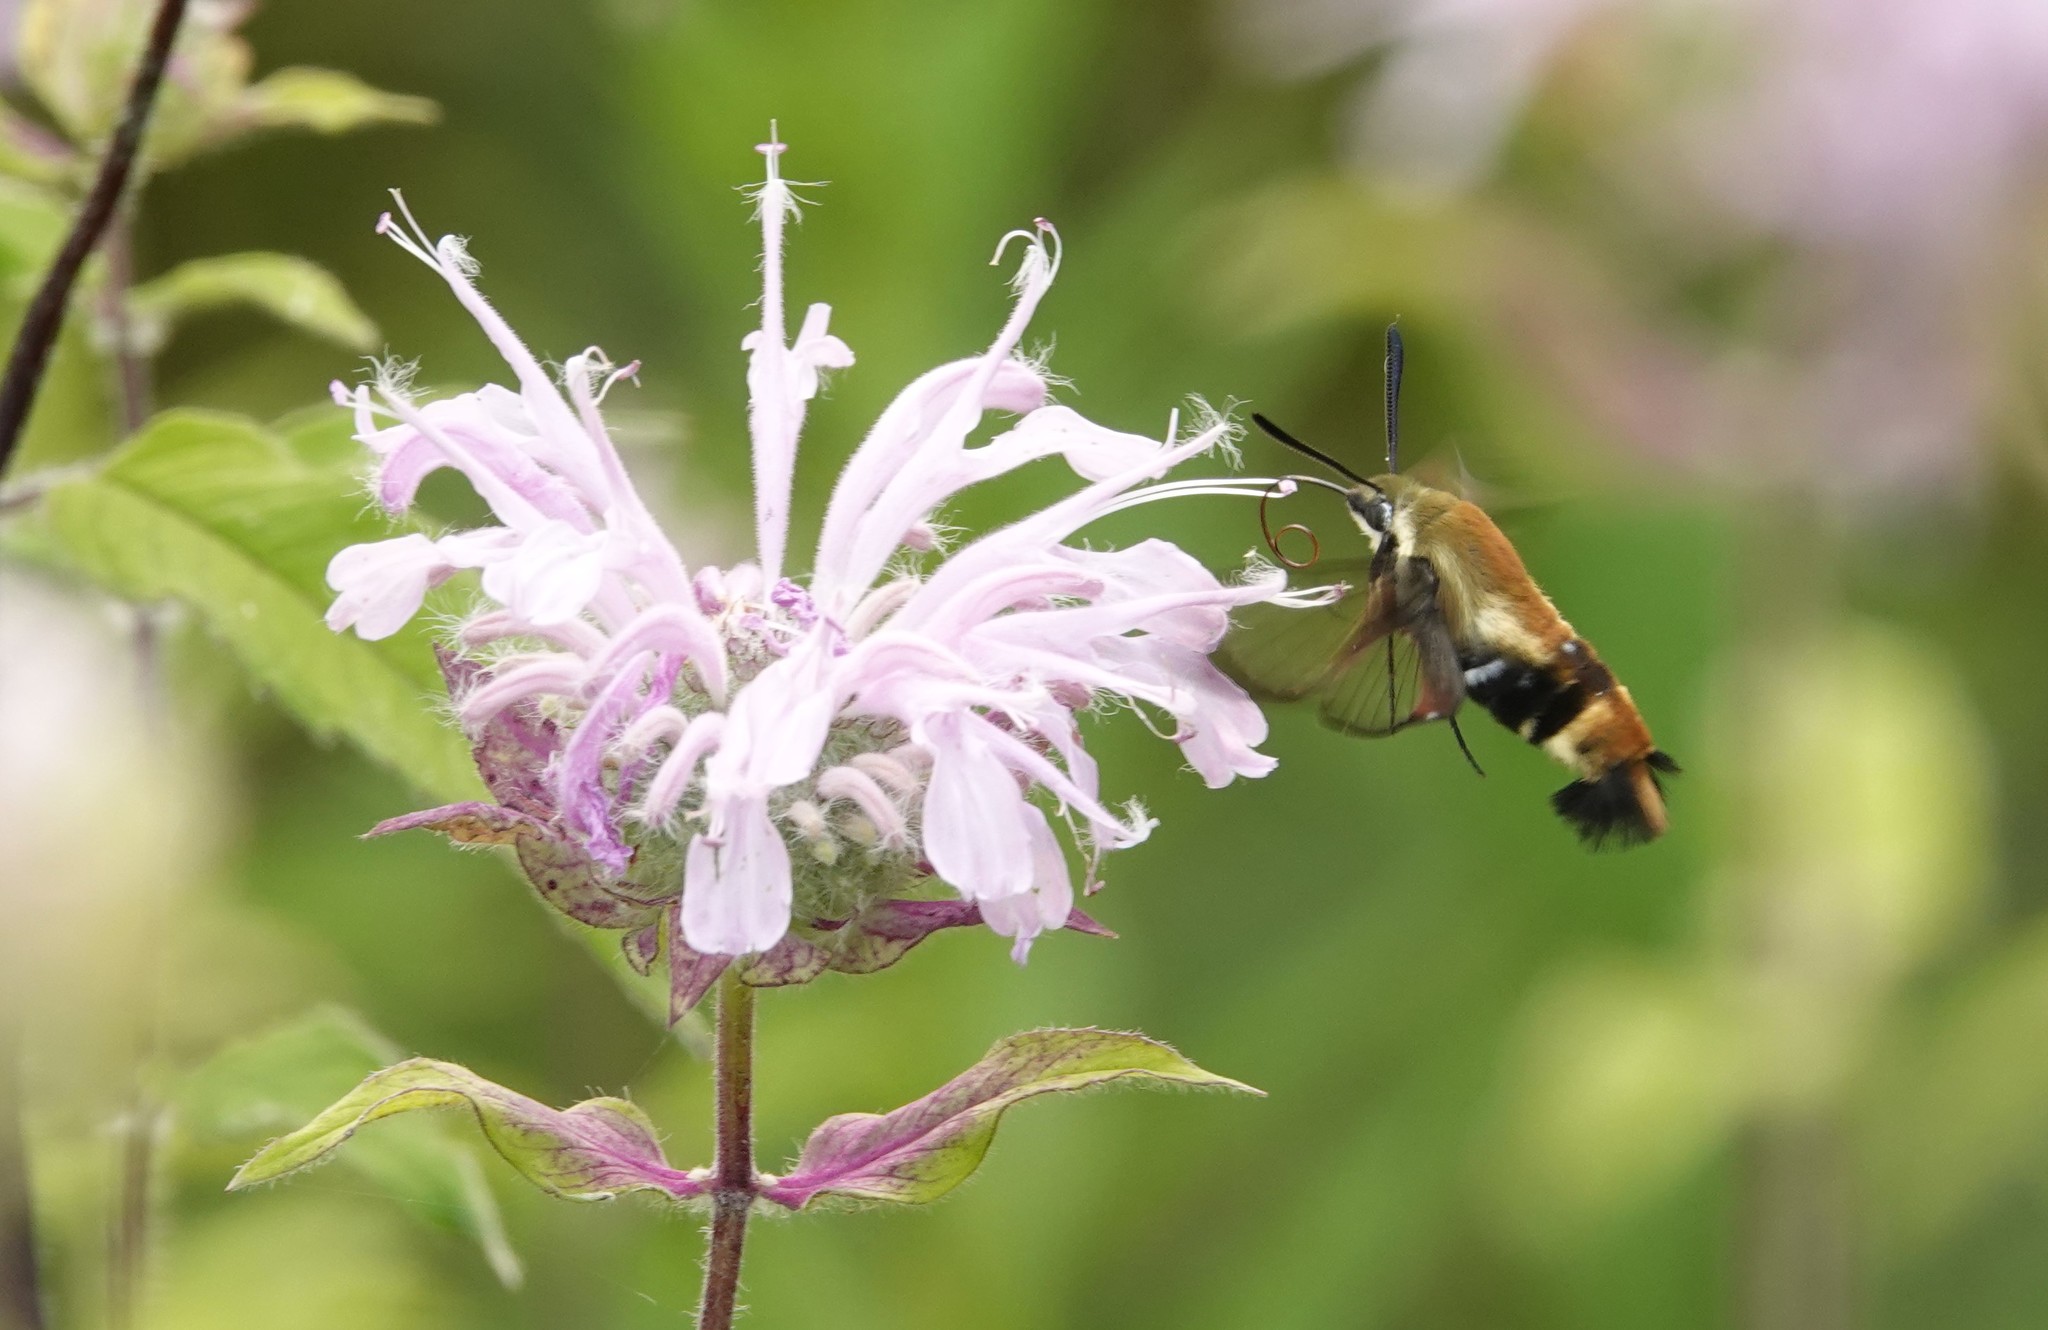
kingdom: Animalia
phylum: Arthropoda
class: Insecta
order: Lepidoptera
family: Sphingidae
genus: Hemaris
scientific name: Hemaris diffinis
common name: Bumblebee moth
